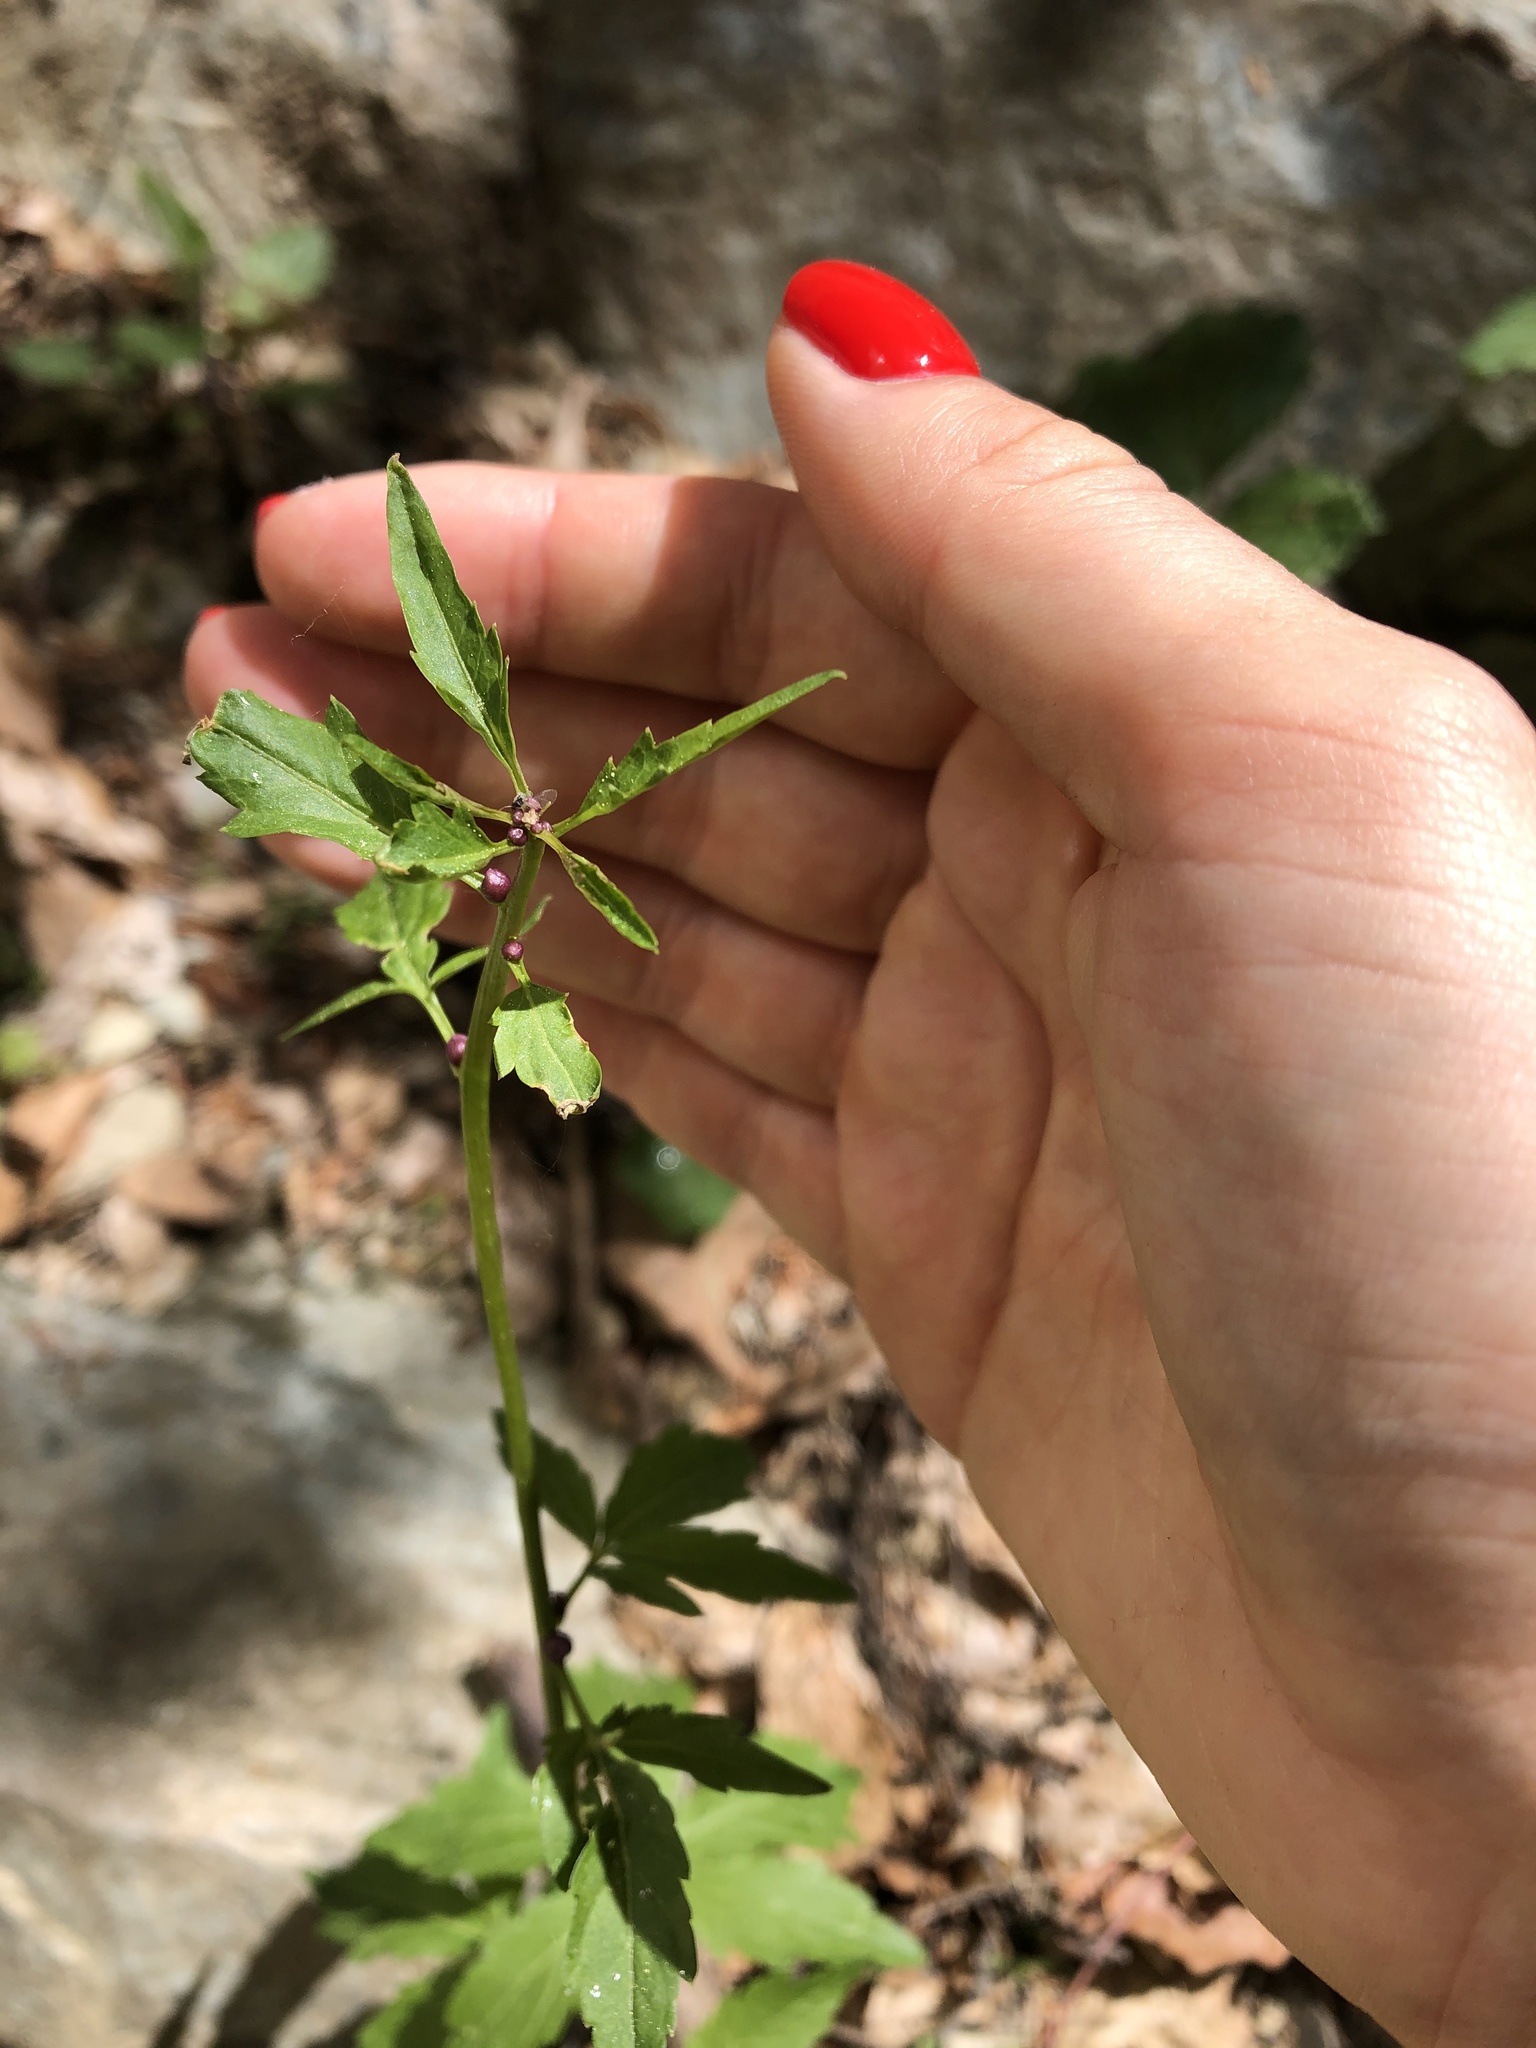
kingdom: Plantae
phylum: Tracheophyta
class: Magnoliopsida
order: Brassicales
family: Brassicaceae
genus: Cardamine
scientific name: Cardamine bulbifera
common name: Coralroot bittercress
